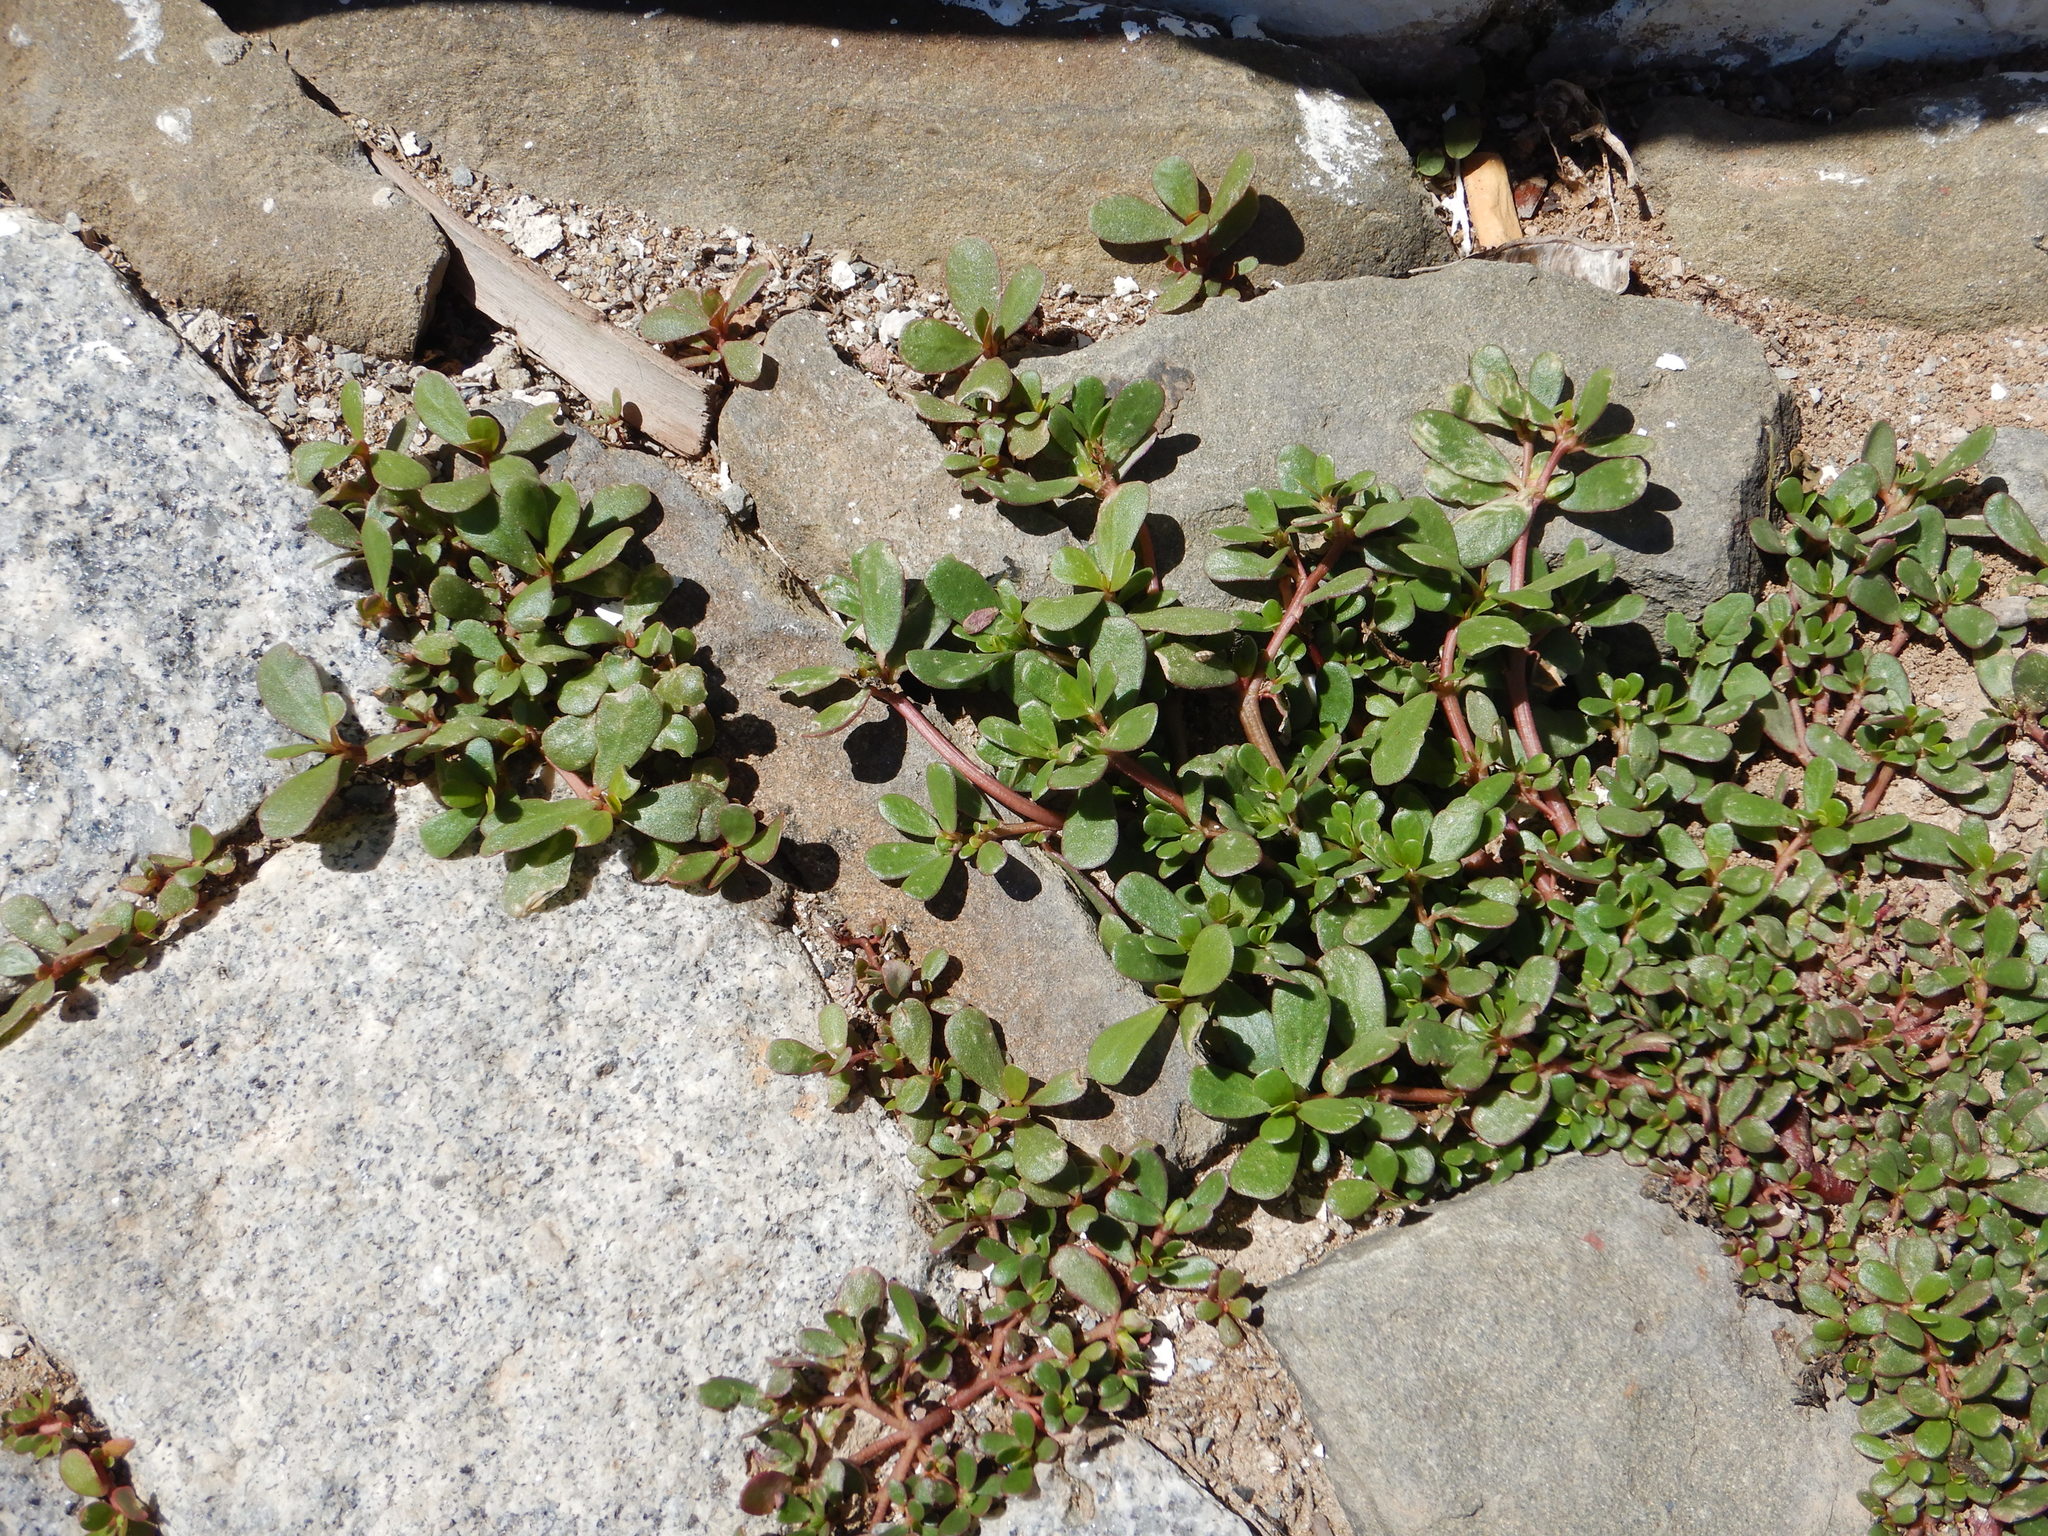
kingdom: Plantae
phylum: Tracheophyta
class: Magnoliopsida
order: Caryophyllales
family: Portulacaceae
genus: Portulaca
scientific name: Portulaca oleracea
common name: Common purslane
